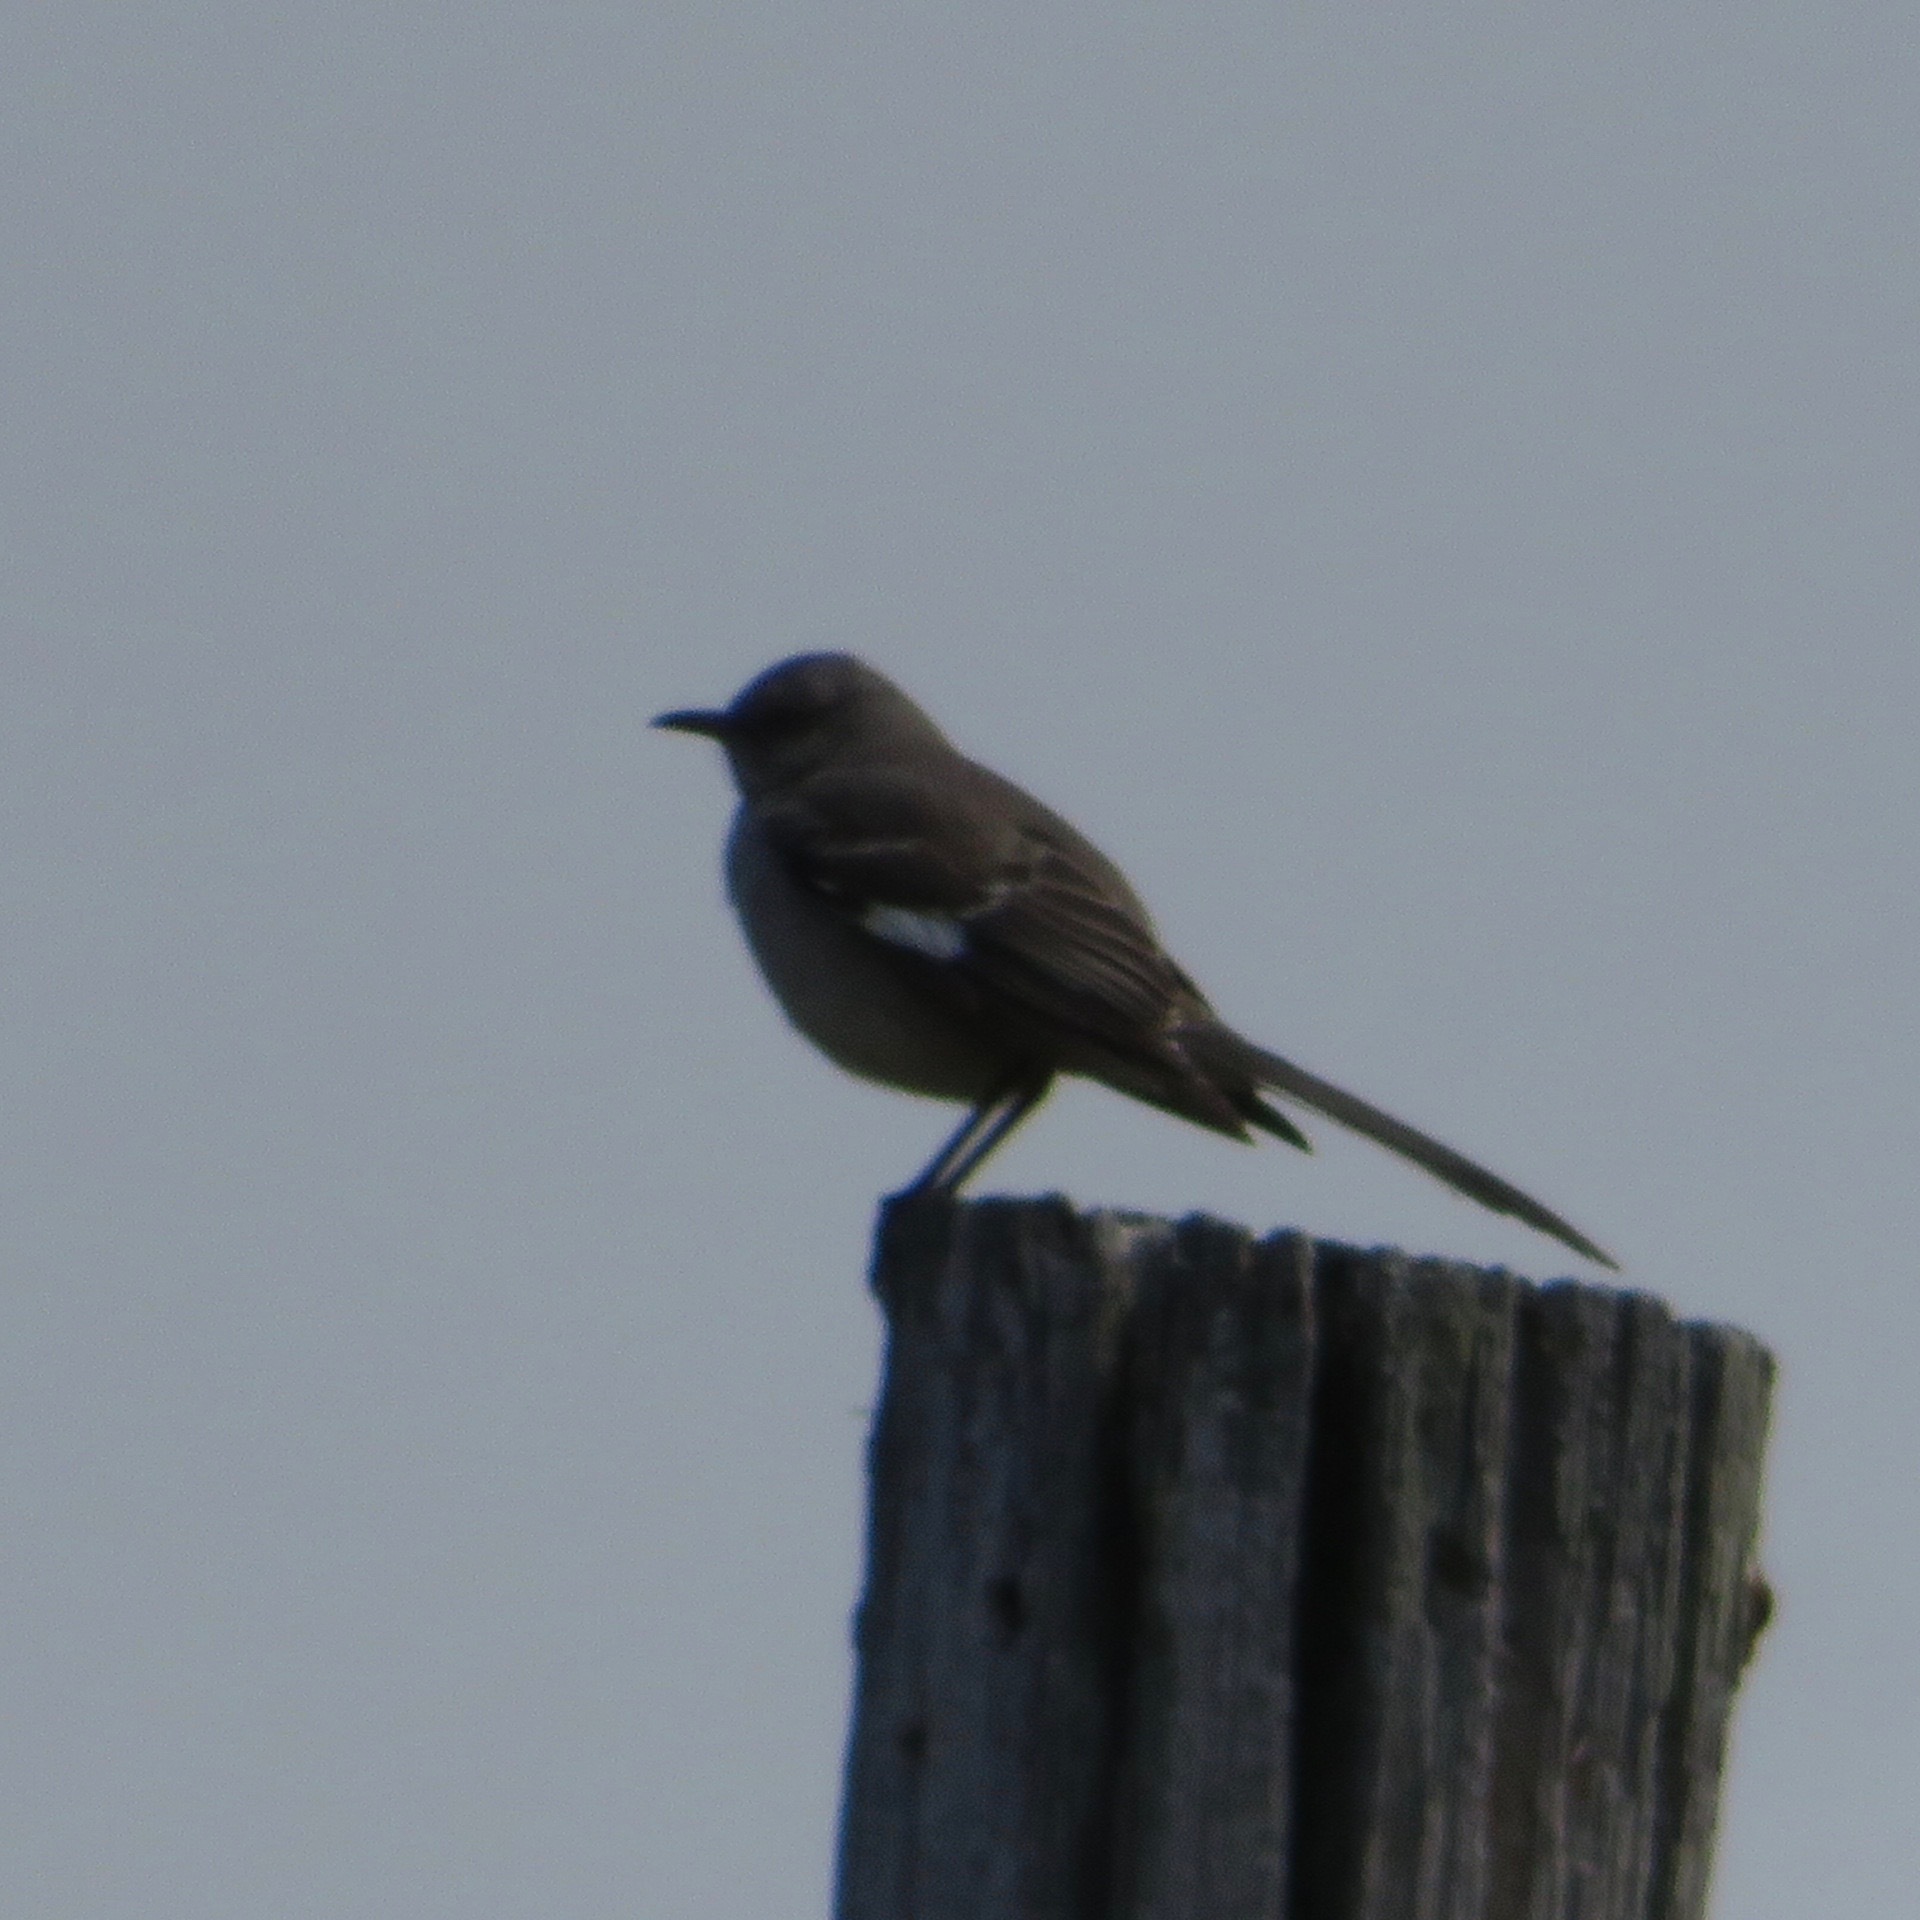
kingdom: Animalia
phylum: Chordata
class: Aves
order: Passeriformes
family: Mimidae
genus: Mimus
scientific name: Mimus polyglottos
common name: Northern mockingbird
